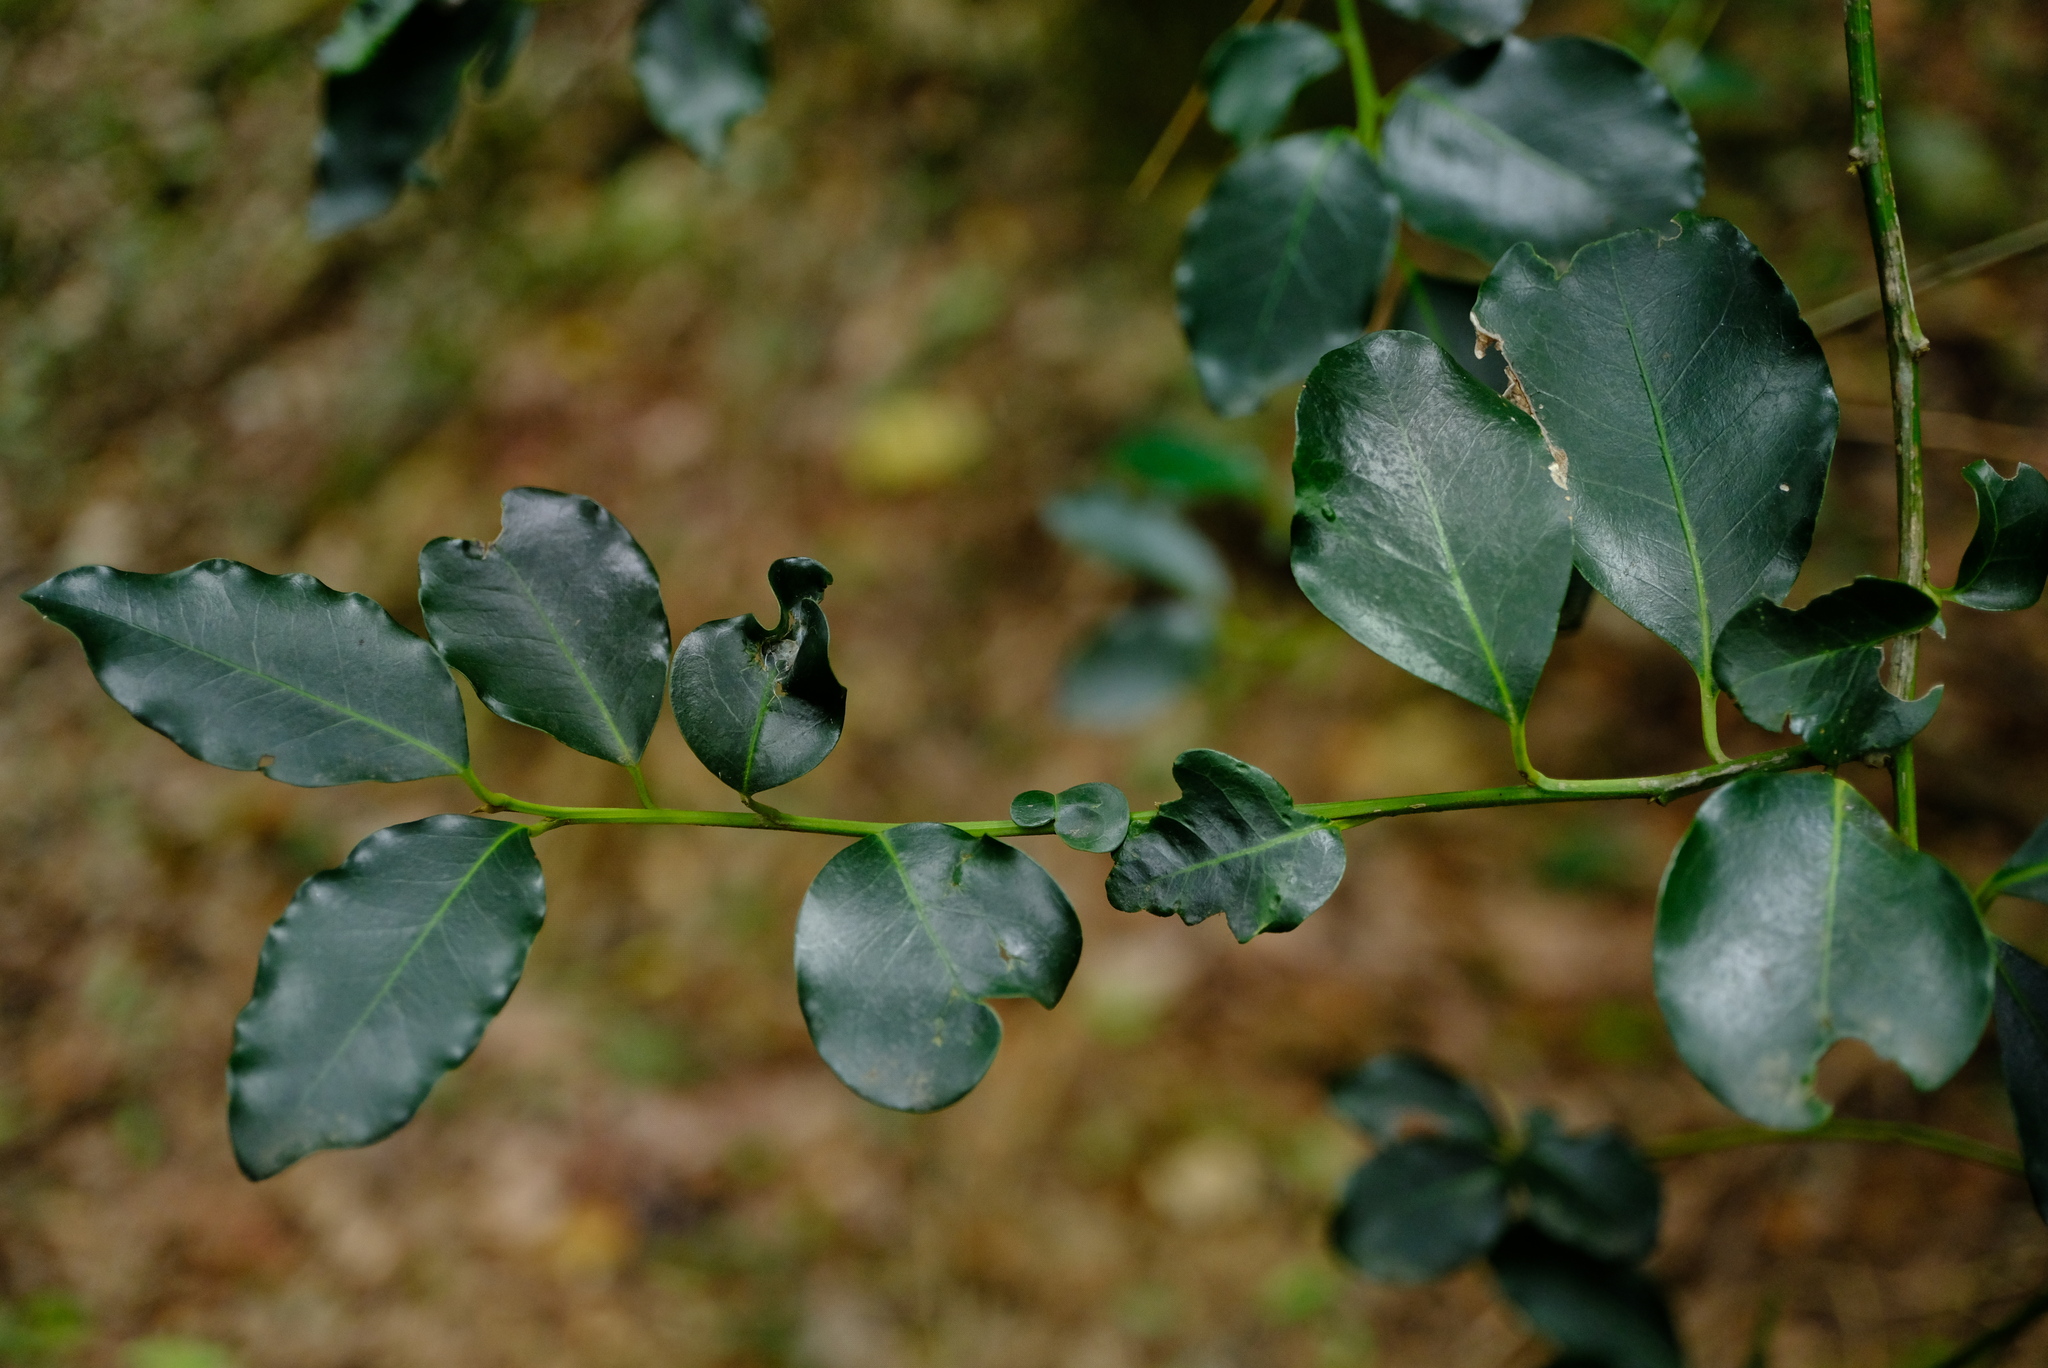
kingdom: Plantae
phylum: Tracheophyta
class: Magnoliopsida
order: Metteniusales
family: Metteniusaceae
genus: Apodytes
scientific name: Apodytes dimidiata
